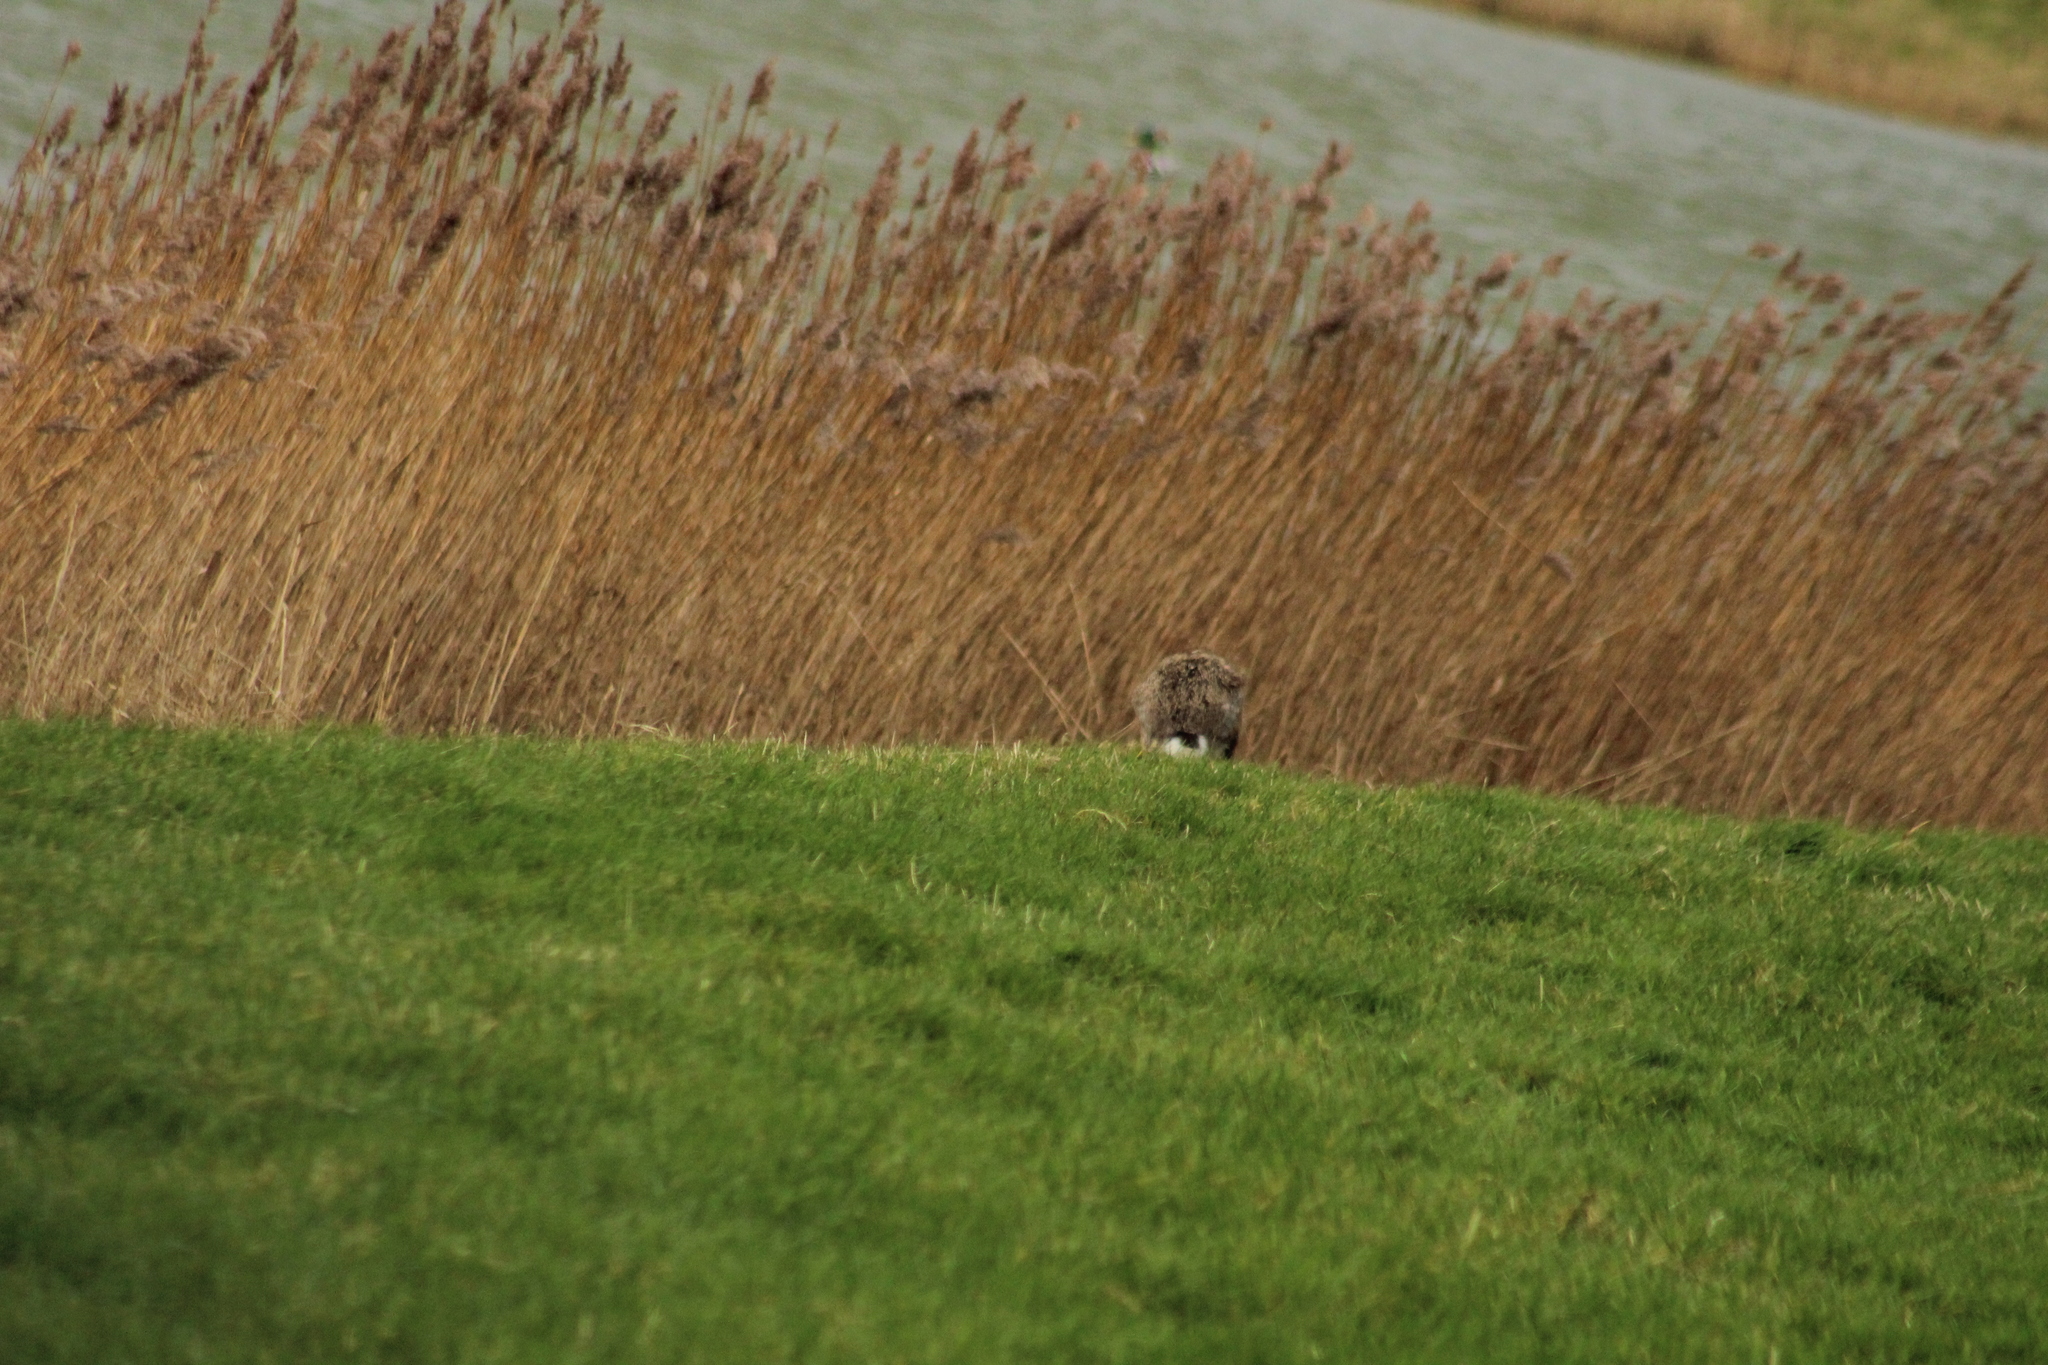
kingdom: Animalia
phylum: Chordata
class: Mammalia
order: Lagomorpha
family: Leporidae
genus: Lepus
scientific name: Lepus europaeus
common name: European hare
